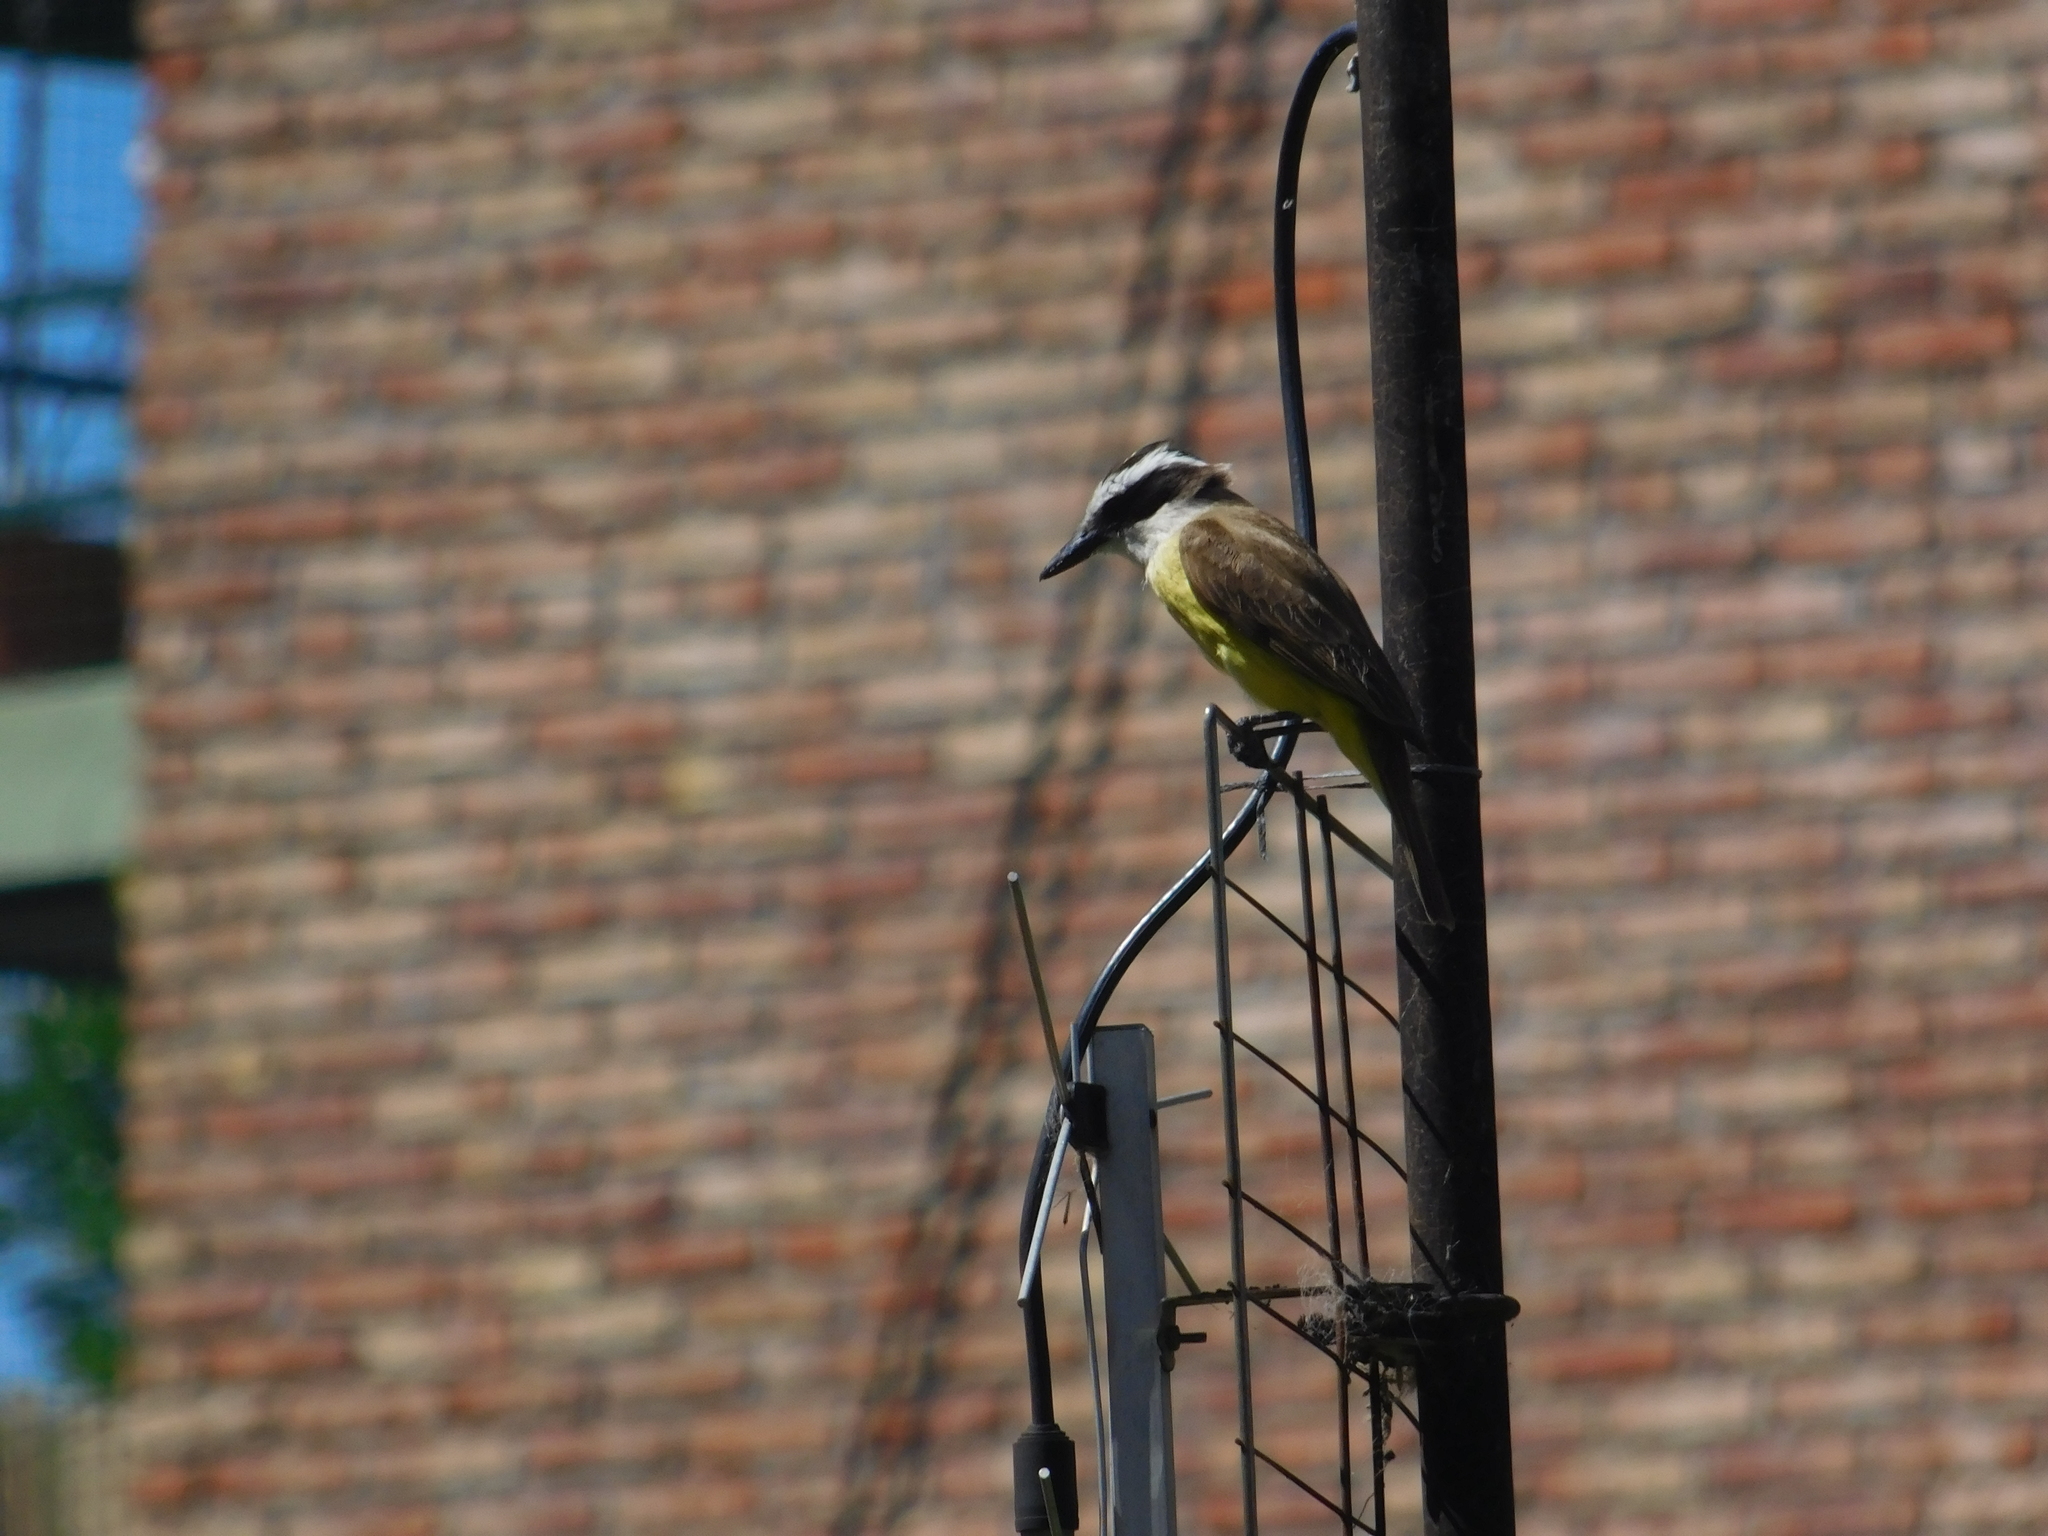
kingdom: Animalia
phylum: Chordata
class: Aves
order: Passeriformes
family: Tyrannidae
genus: Pitangus
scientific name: Pitangus sulphuratus
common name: Great kiskadee
